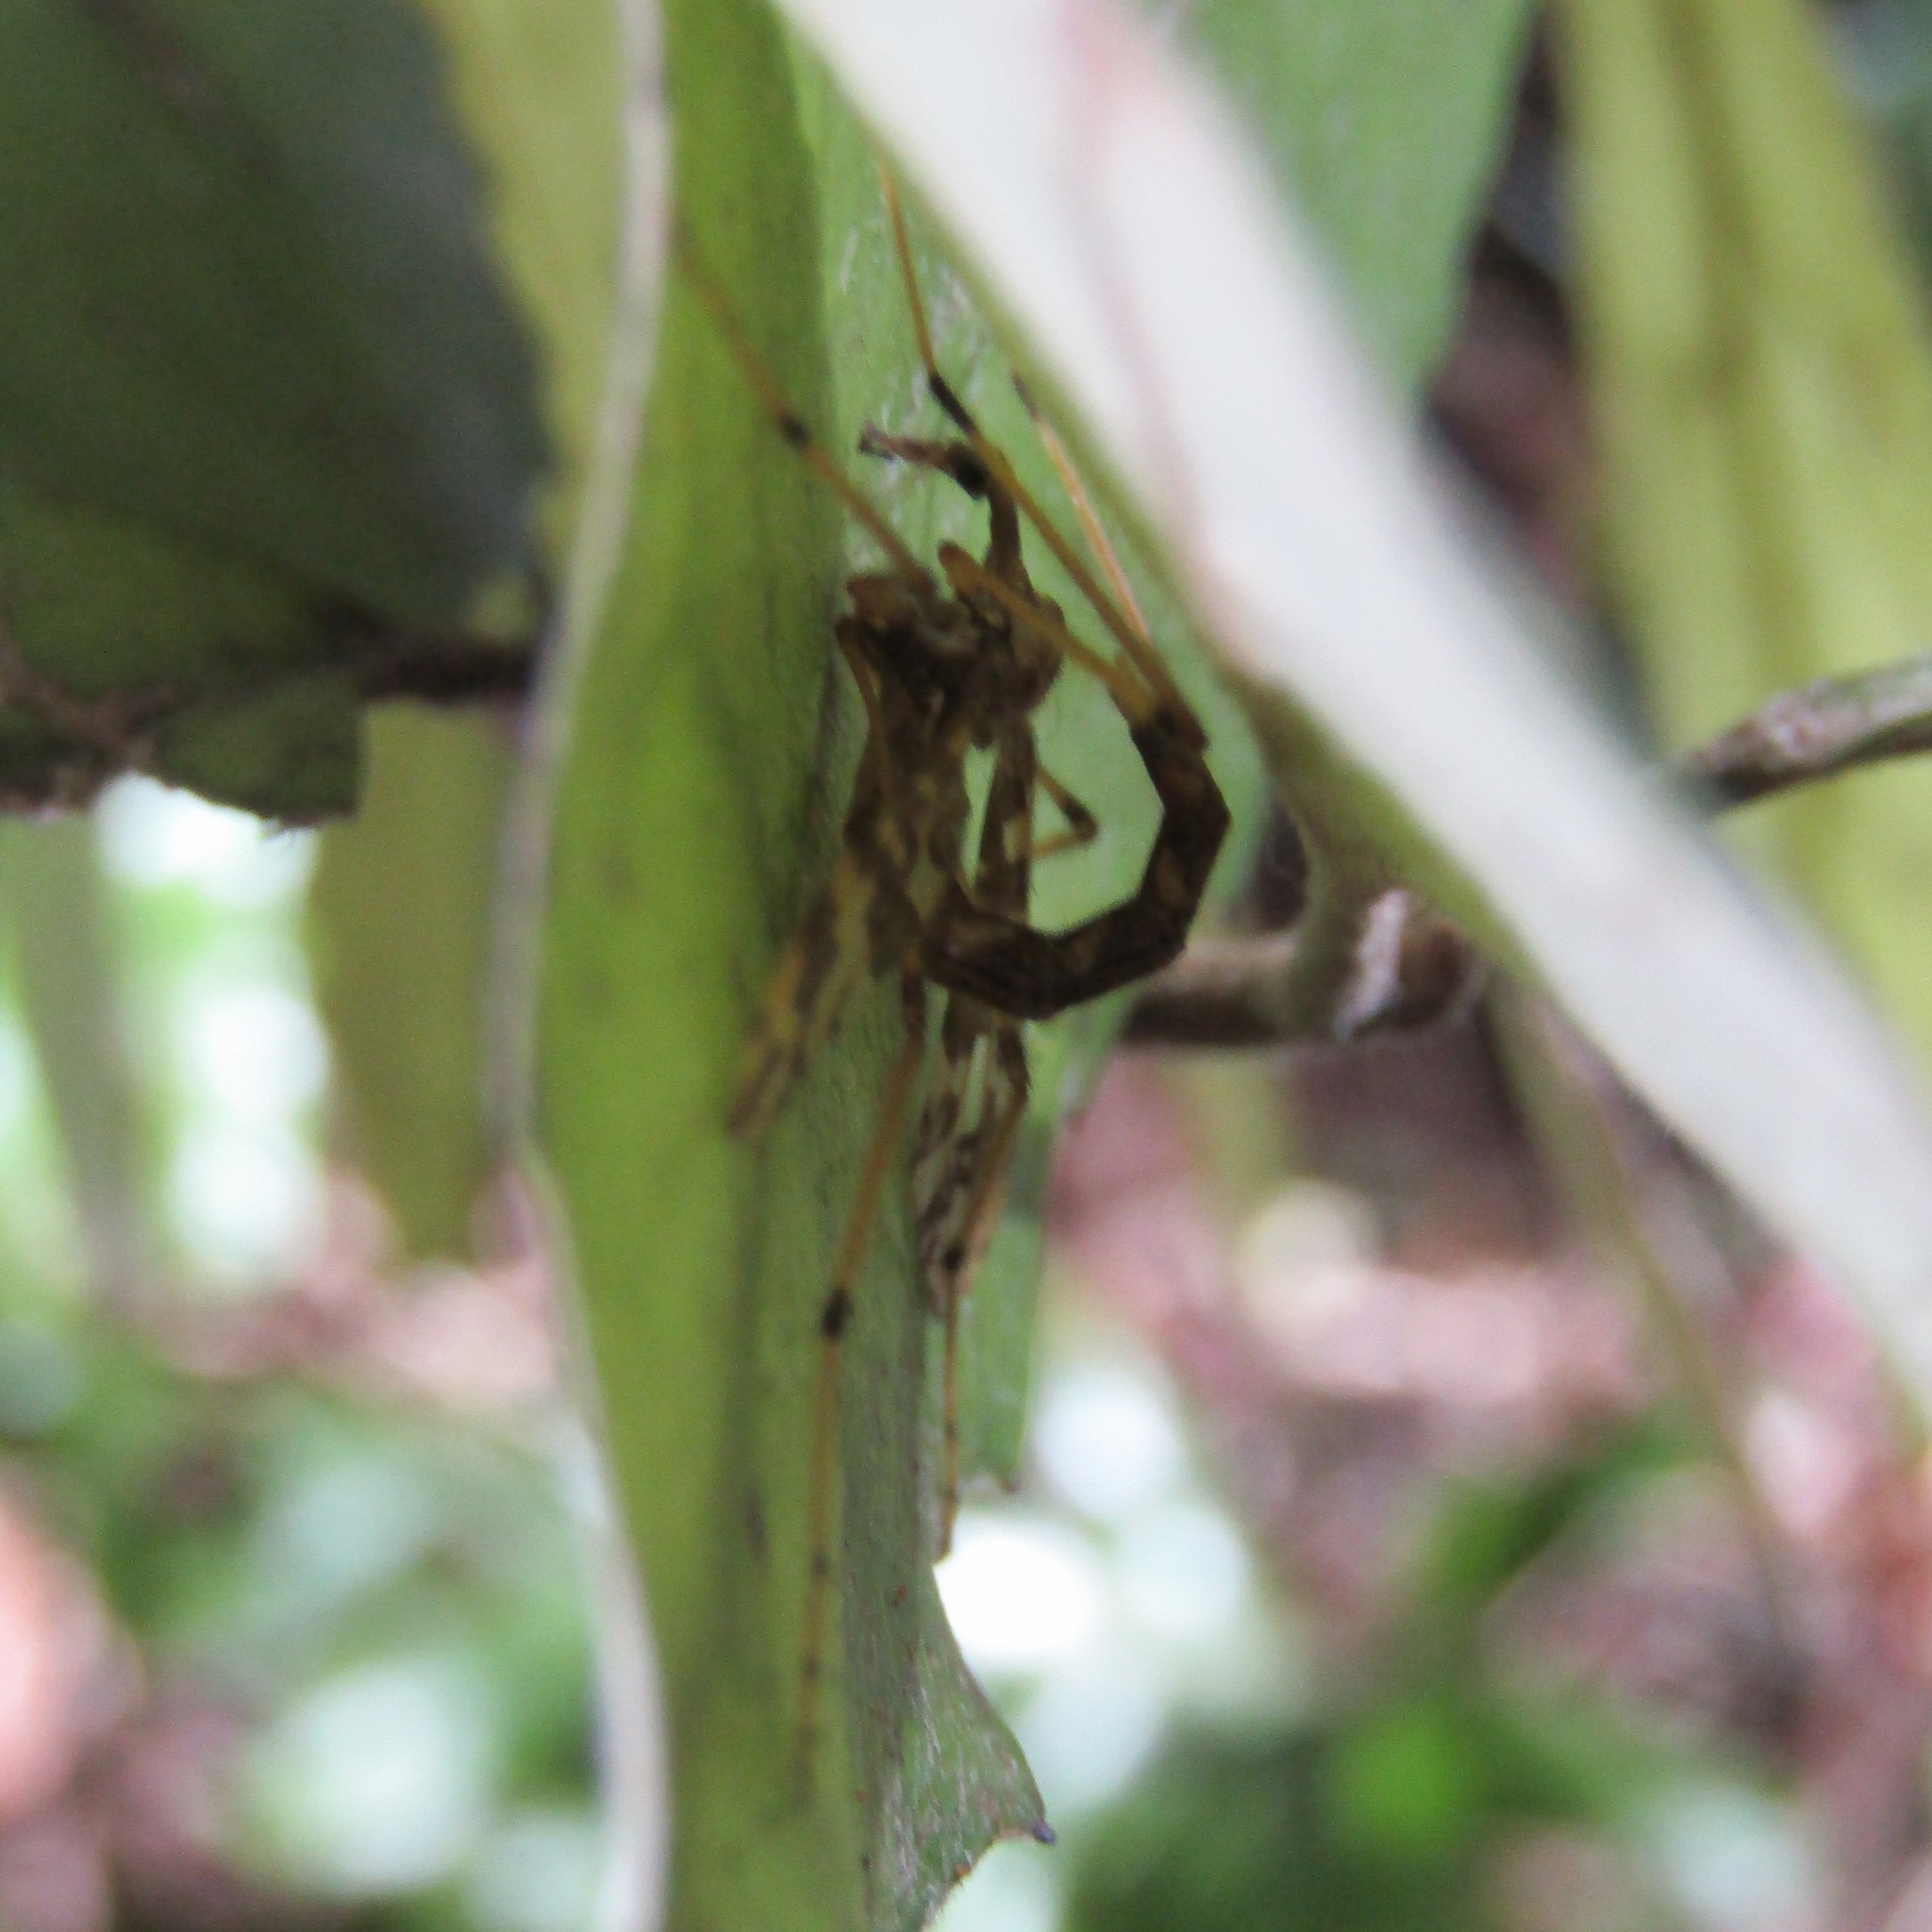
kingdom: Animalia
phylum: Arthropoda
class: Insecta
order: Diptera
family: Tanyderidae
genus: Tanyderus
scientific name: Tanyderus forcipatus
